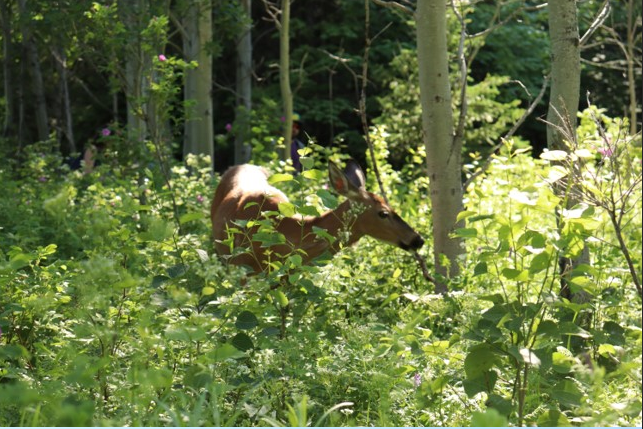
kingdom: Animalia
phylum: Chordata
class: Mammalia
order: Artiodactyla
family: Cervidae
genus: Odocoileus
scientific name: Odocoileus virginianus
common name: White-tailed deer
